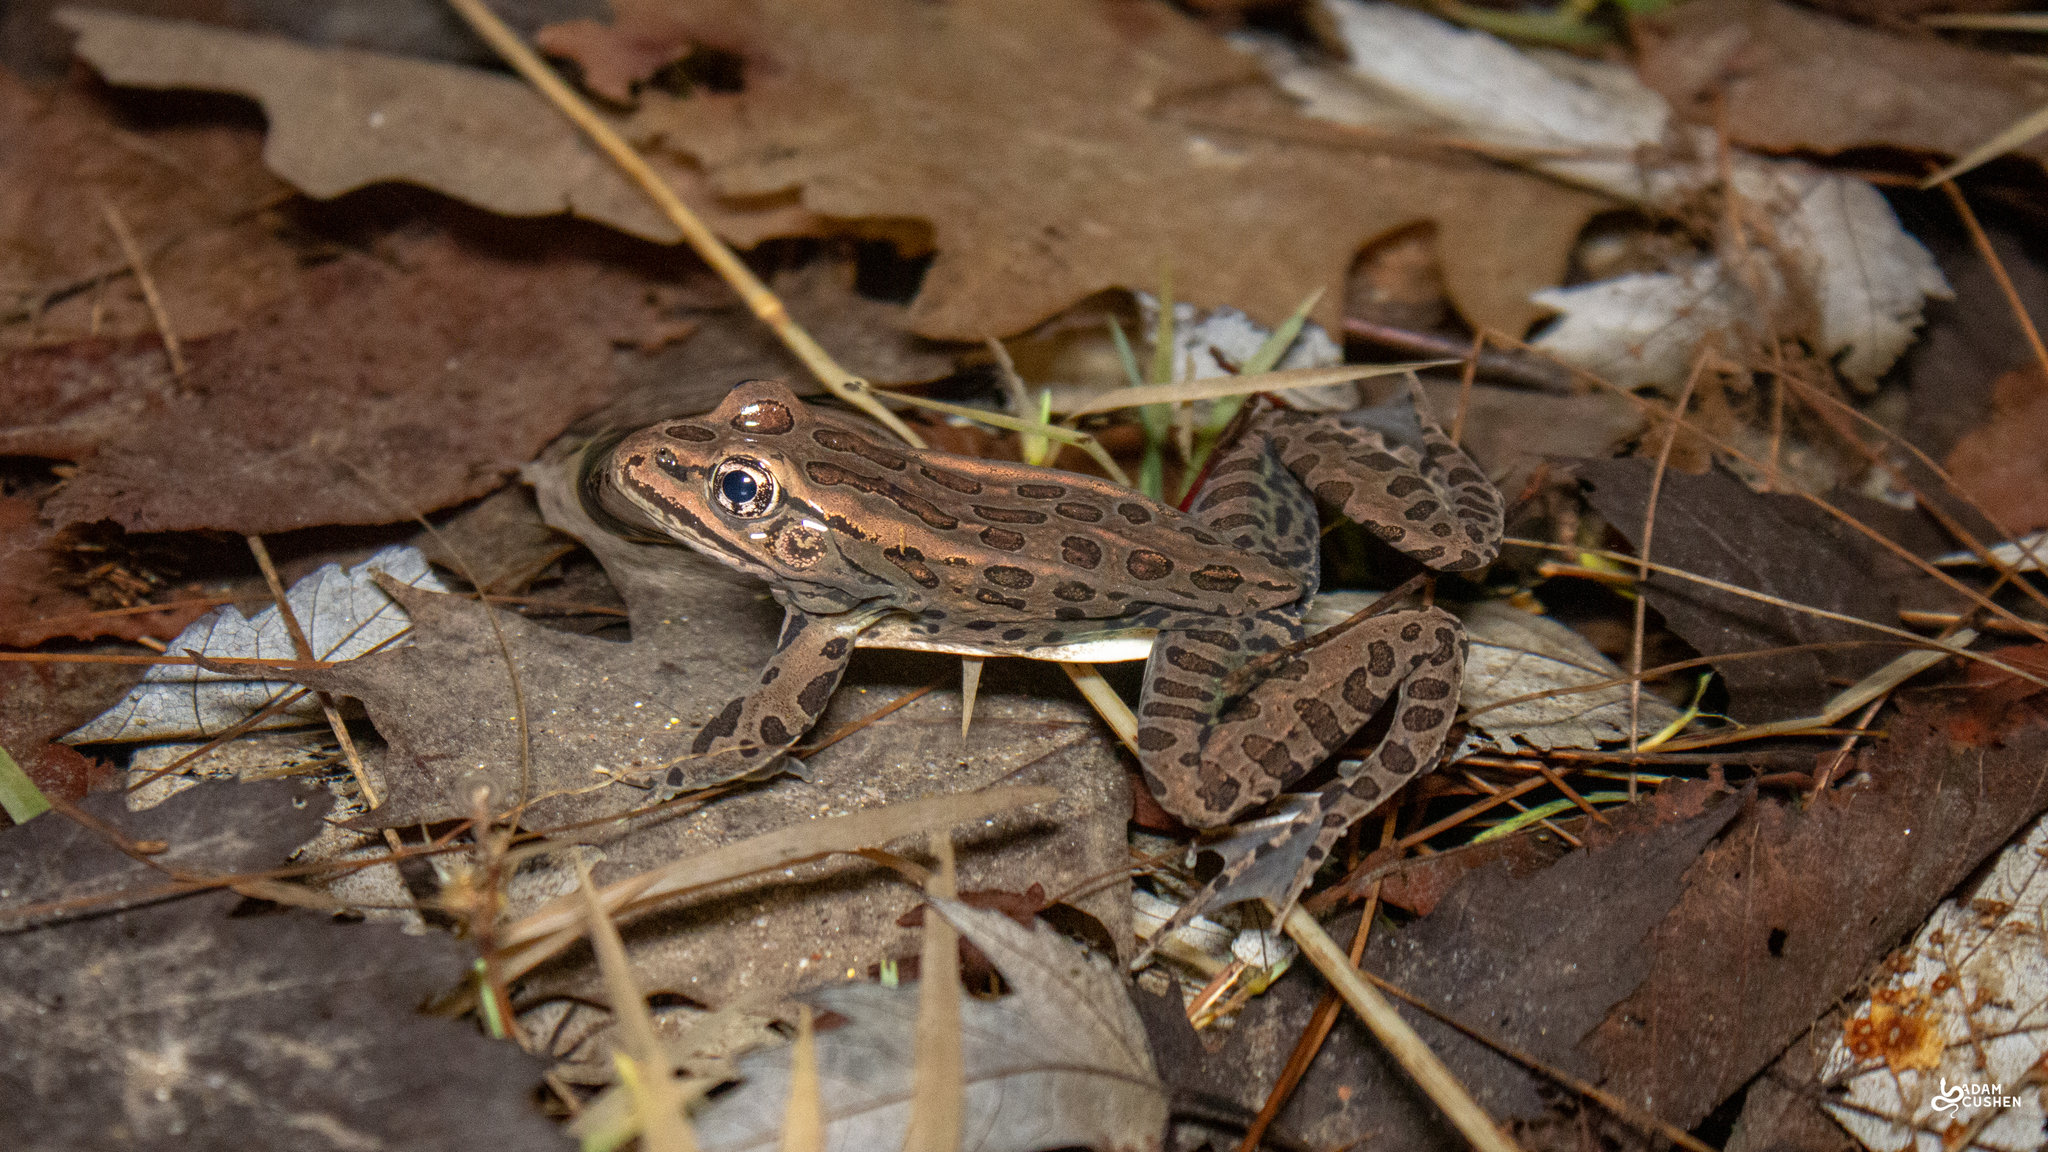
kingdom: Animalia
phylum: Chordata
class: Amphibia
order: Anura
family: Ranidae
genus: Lithobates
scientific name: Lithobates pipiens
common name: Northern leopard frog
